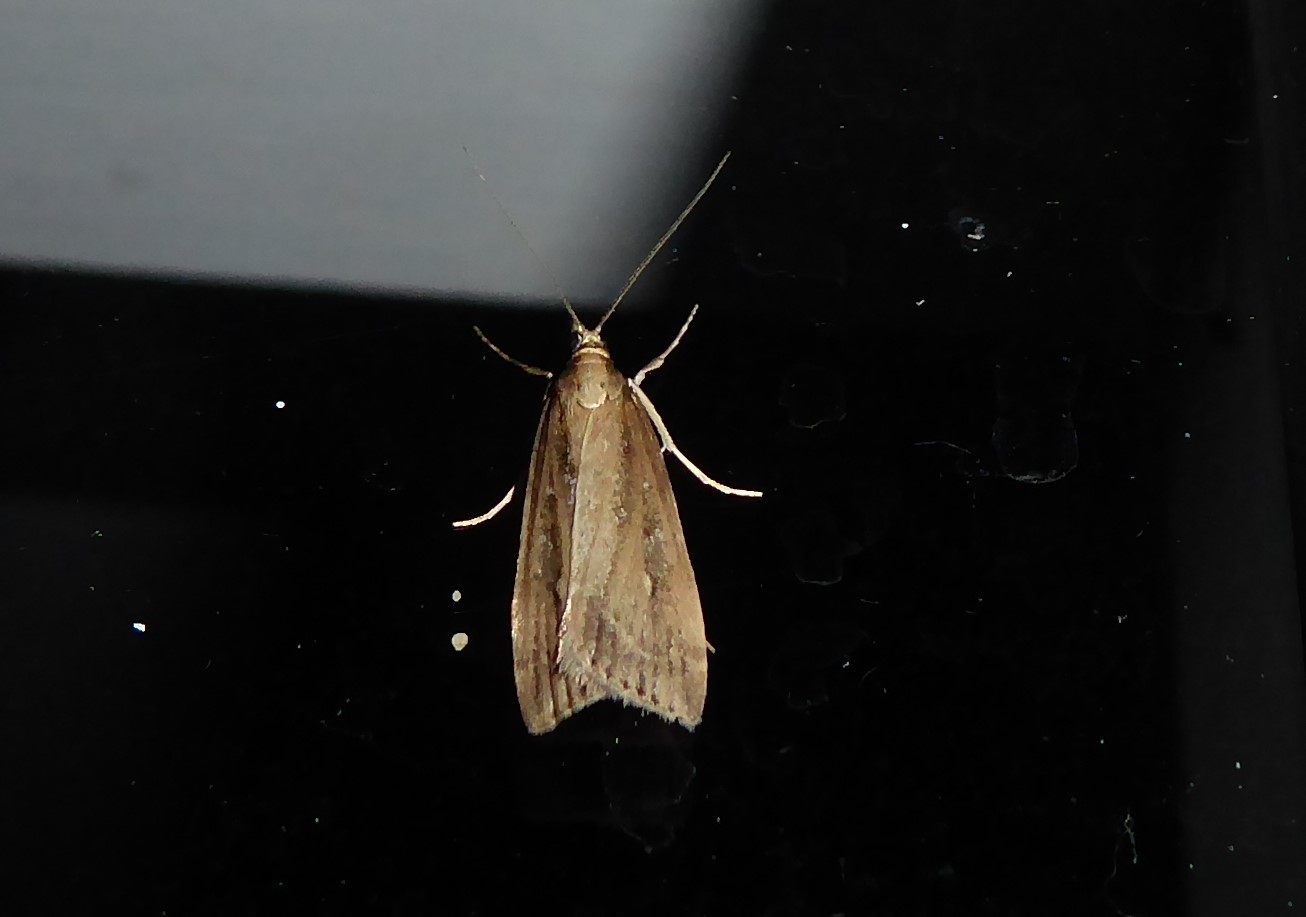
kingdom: Animalia
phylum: Arthropoda
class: Insecta
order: Lepidoptera
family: Crambidae
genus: Eudonia
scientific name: Eudonia octophora
